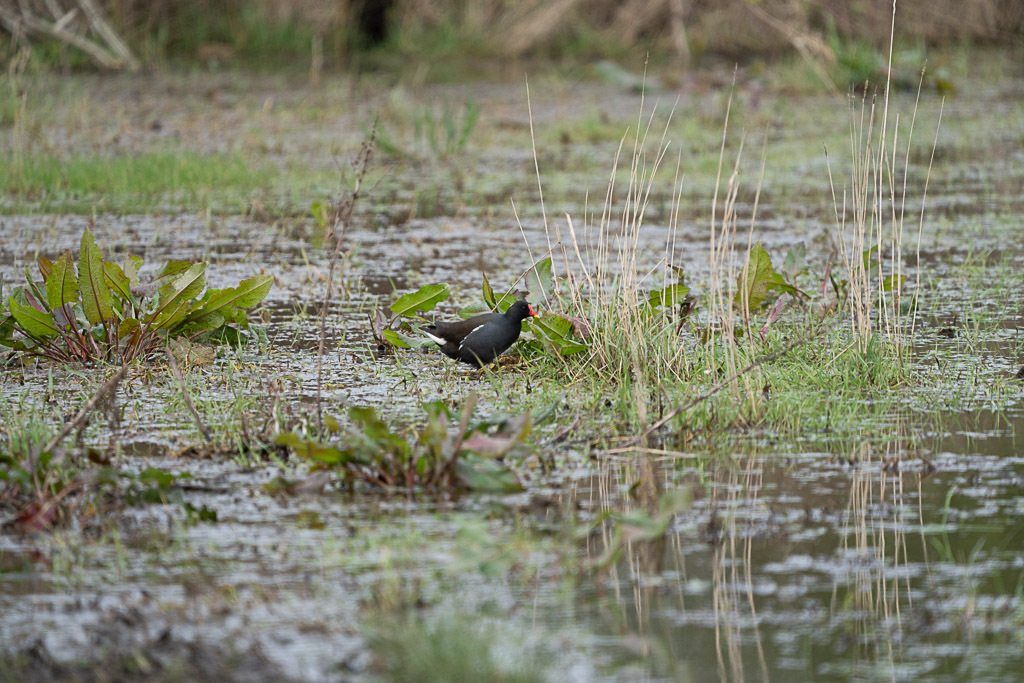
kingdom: Animalia
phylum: Chordata
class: Aves
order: Gruiformes
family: Rallidae
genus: Gallinula
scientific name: Gallinula chloropus
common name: Common moorhen
